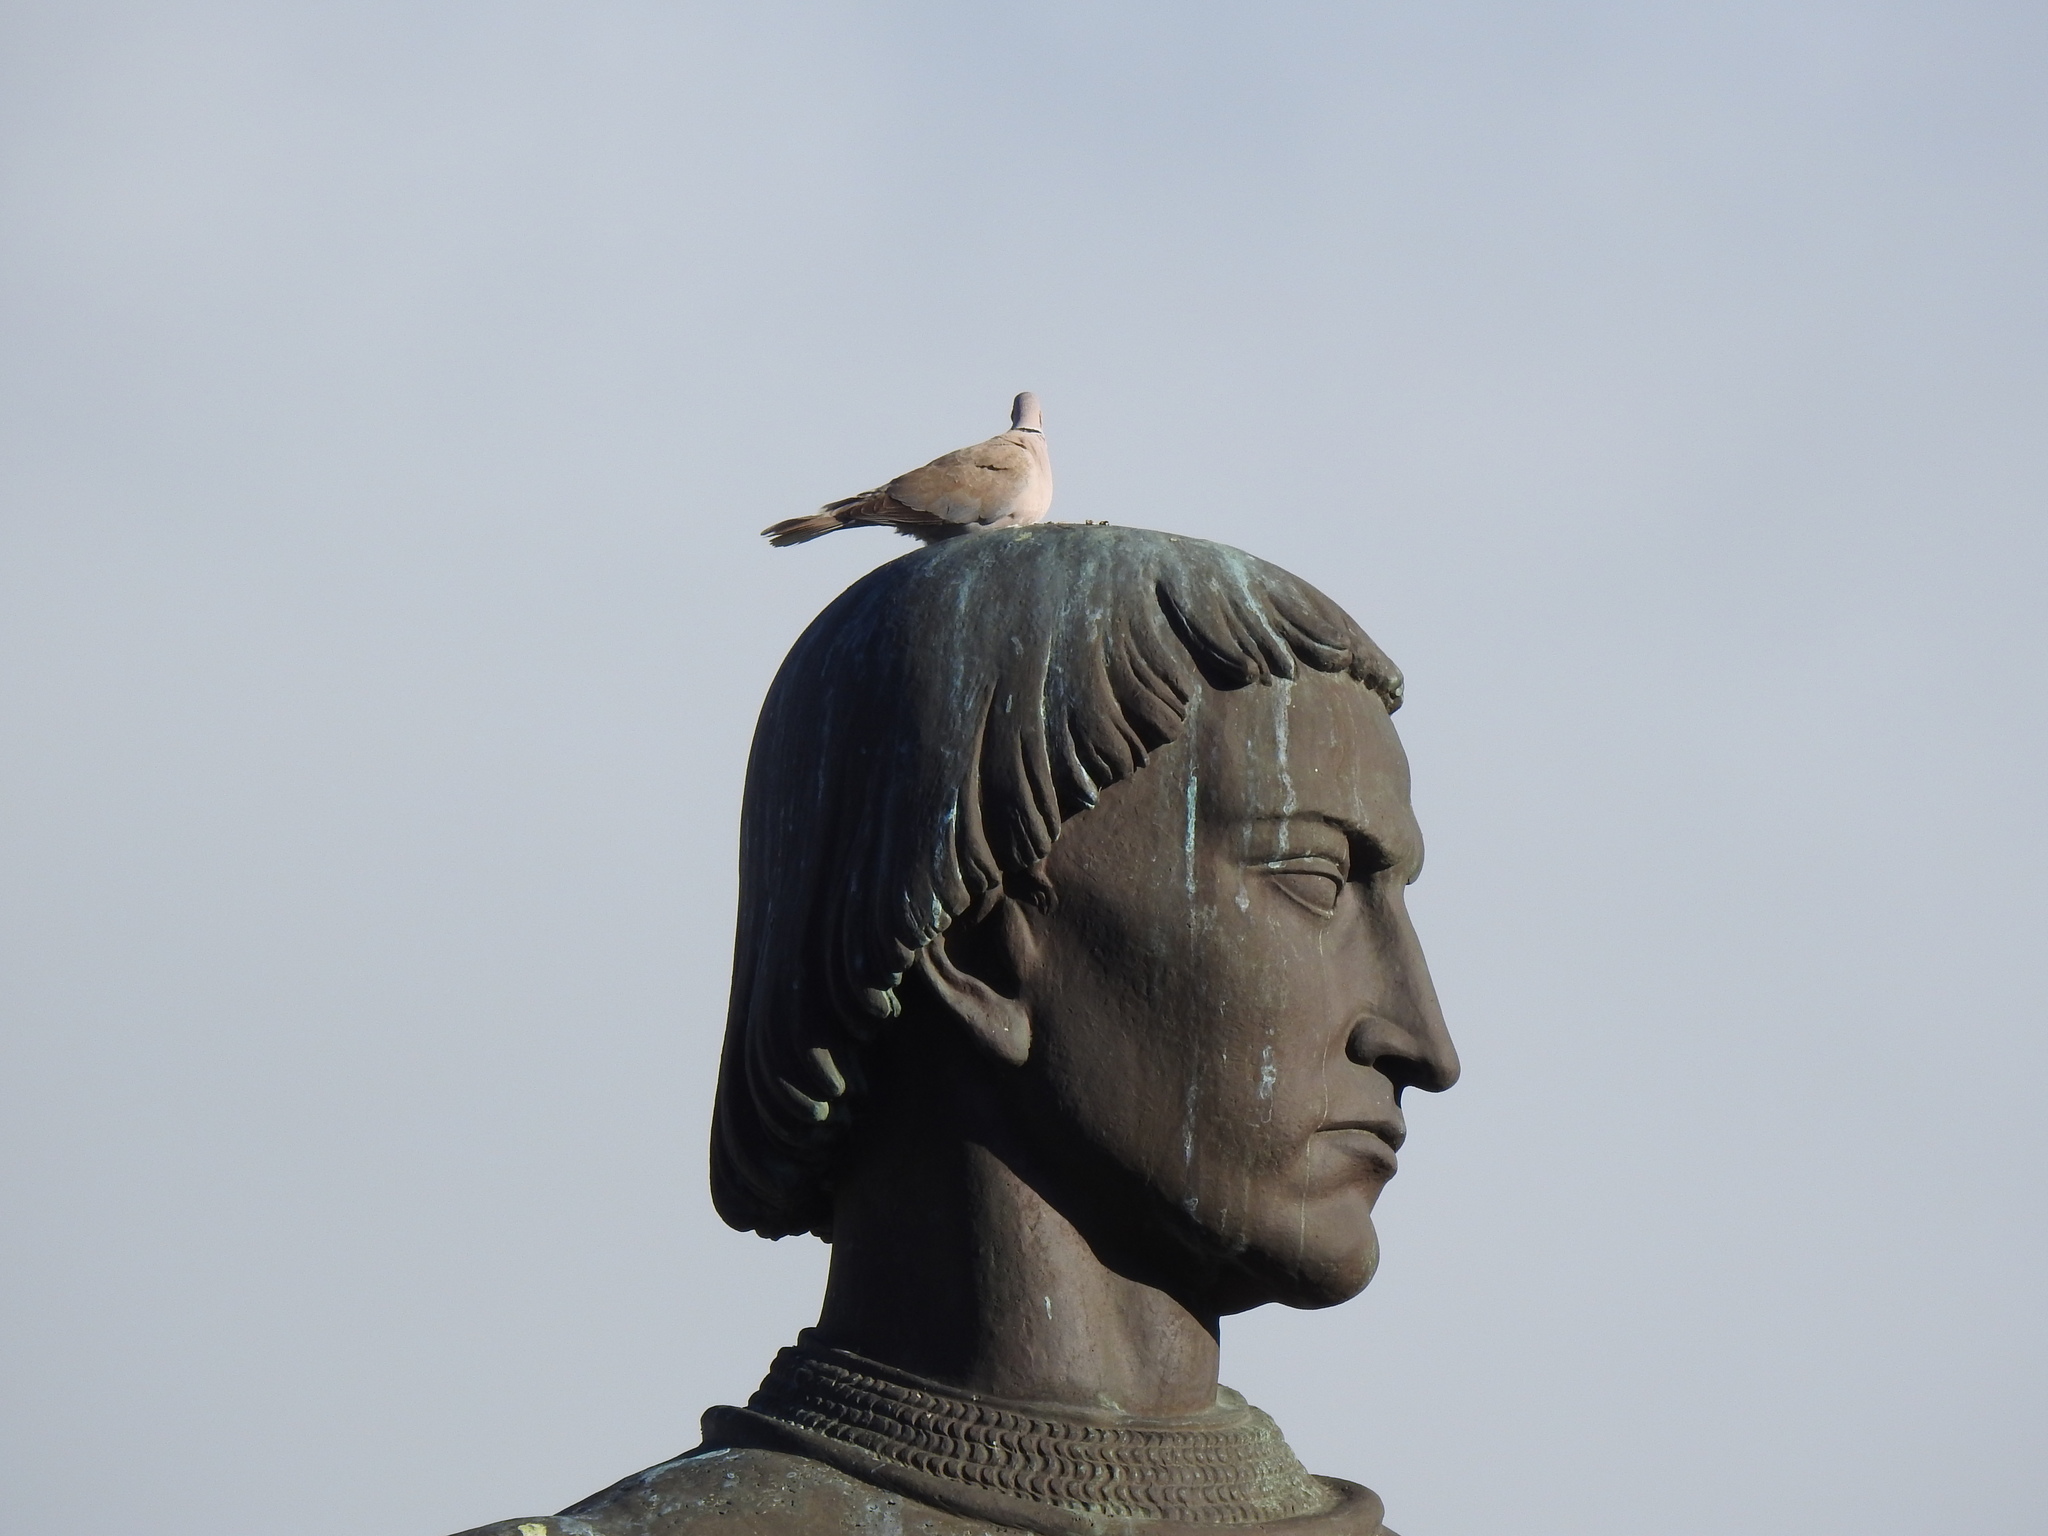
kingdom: Animalia
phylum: Chordata
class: Aves
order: Columbiformes
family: Columbidae
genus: Streptopelia
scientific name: Streptopelia decaocto
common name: Eurasian collared dove
